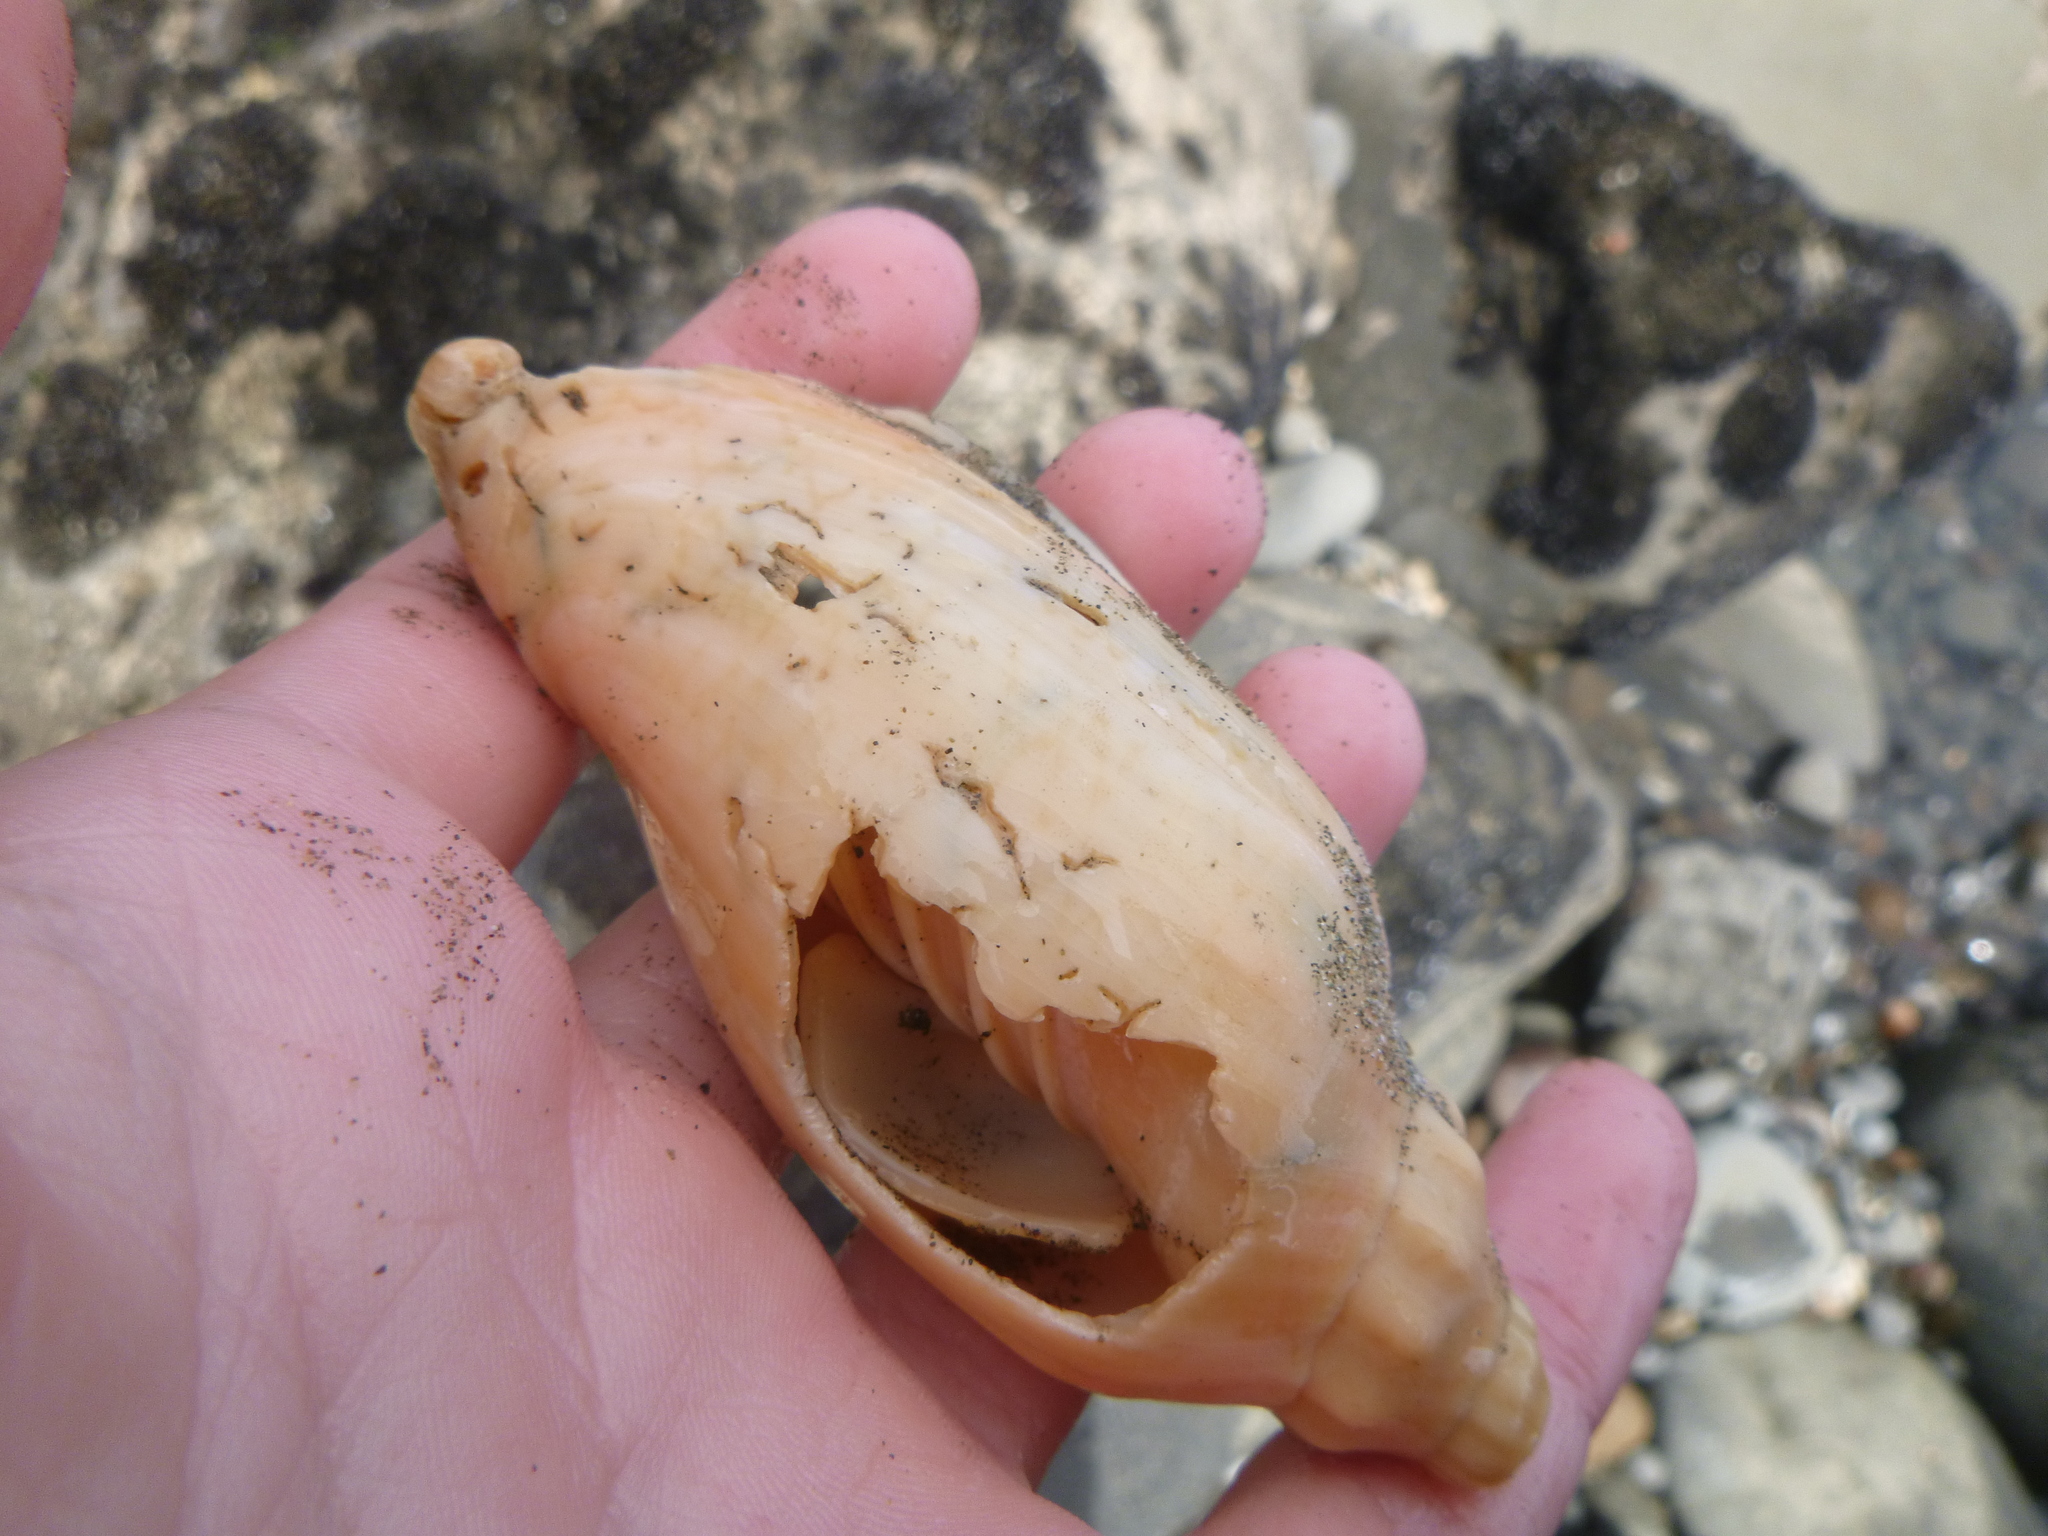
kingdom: Animalia
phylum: Mollusca
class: Gastropoda
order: Neogastropoda
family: Volutidae
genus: Alcithoe
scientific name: Alcithoe arabica
